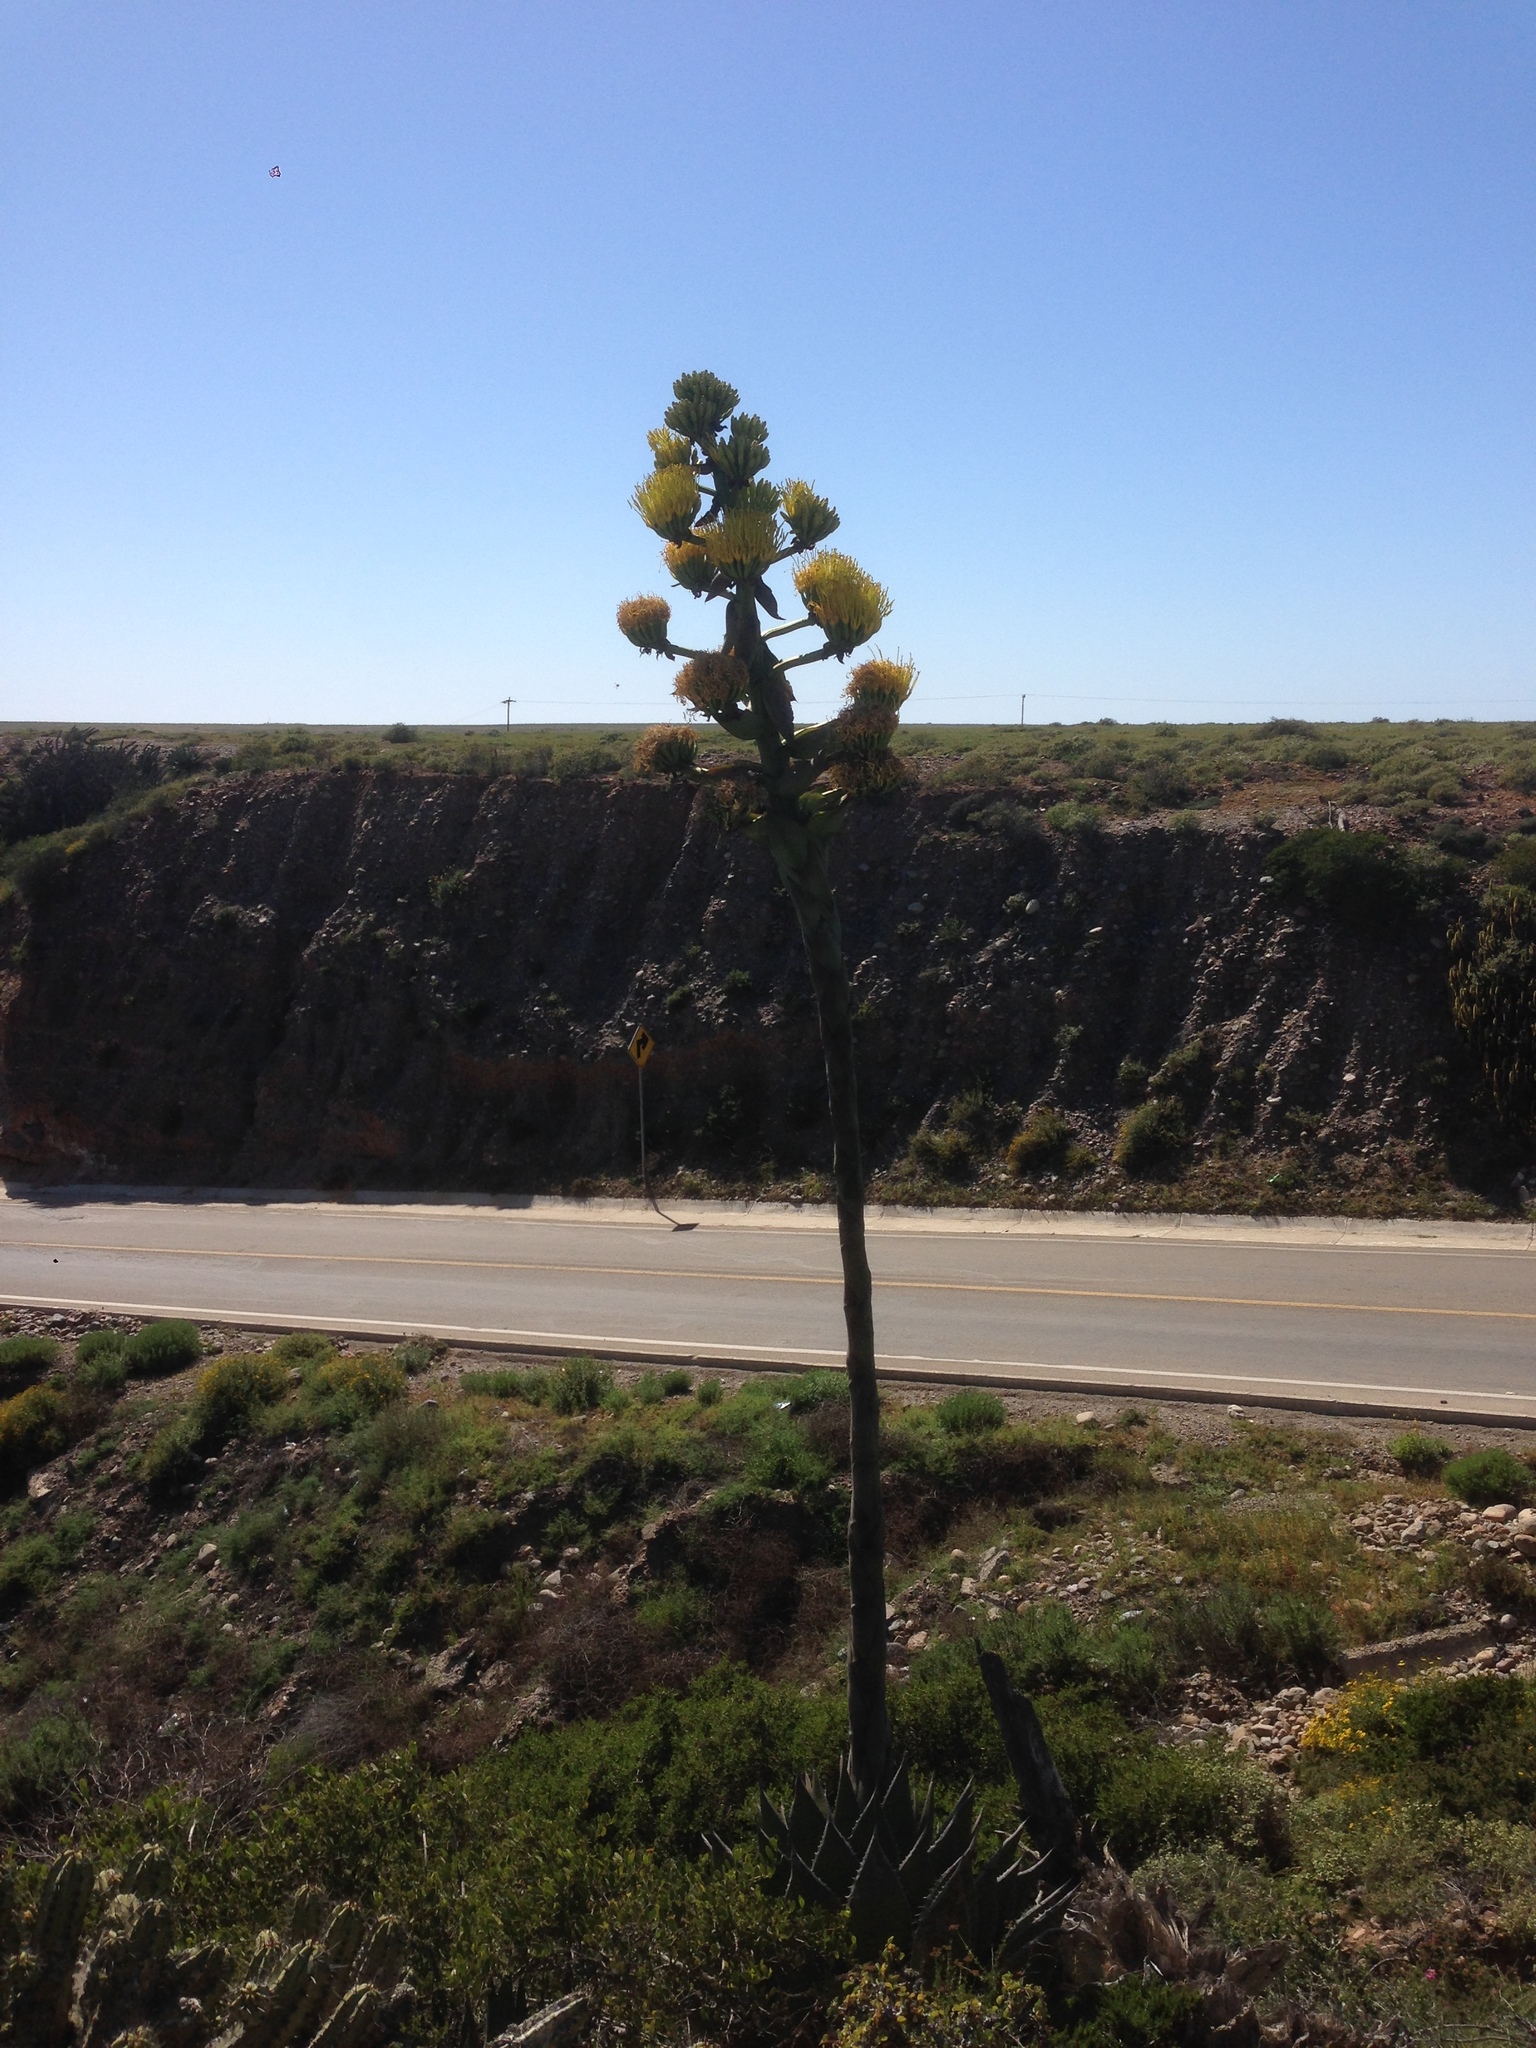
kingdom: Plantae
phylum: Tracheophyta
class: Liliopsida
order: Asparagales
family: Asparagaceae
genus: Agave
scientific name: Agave shawii
